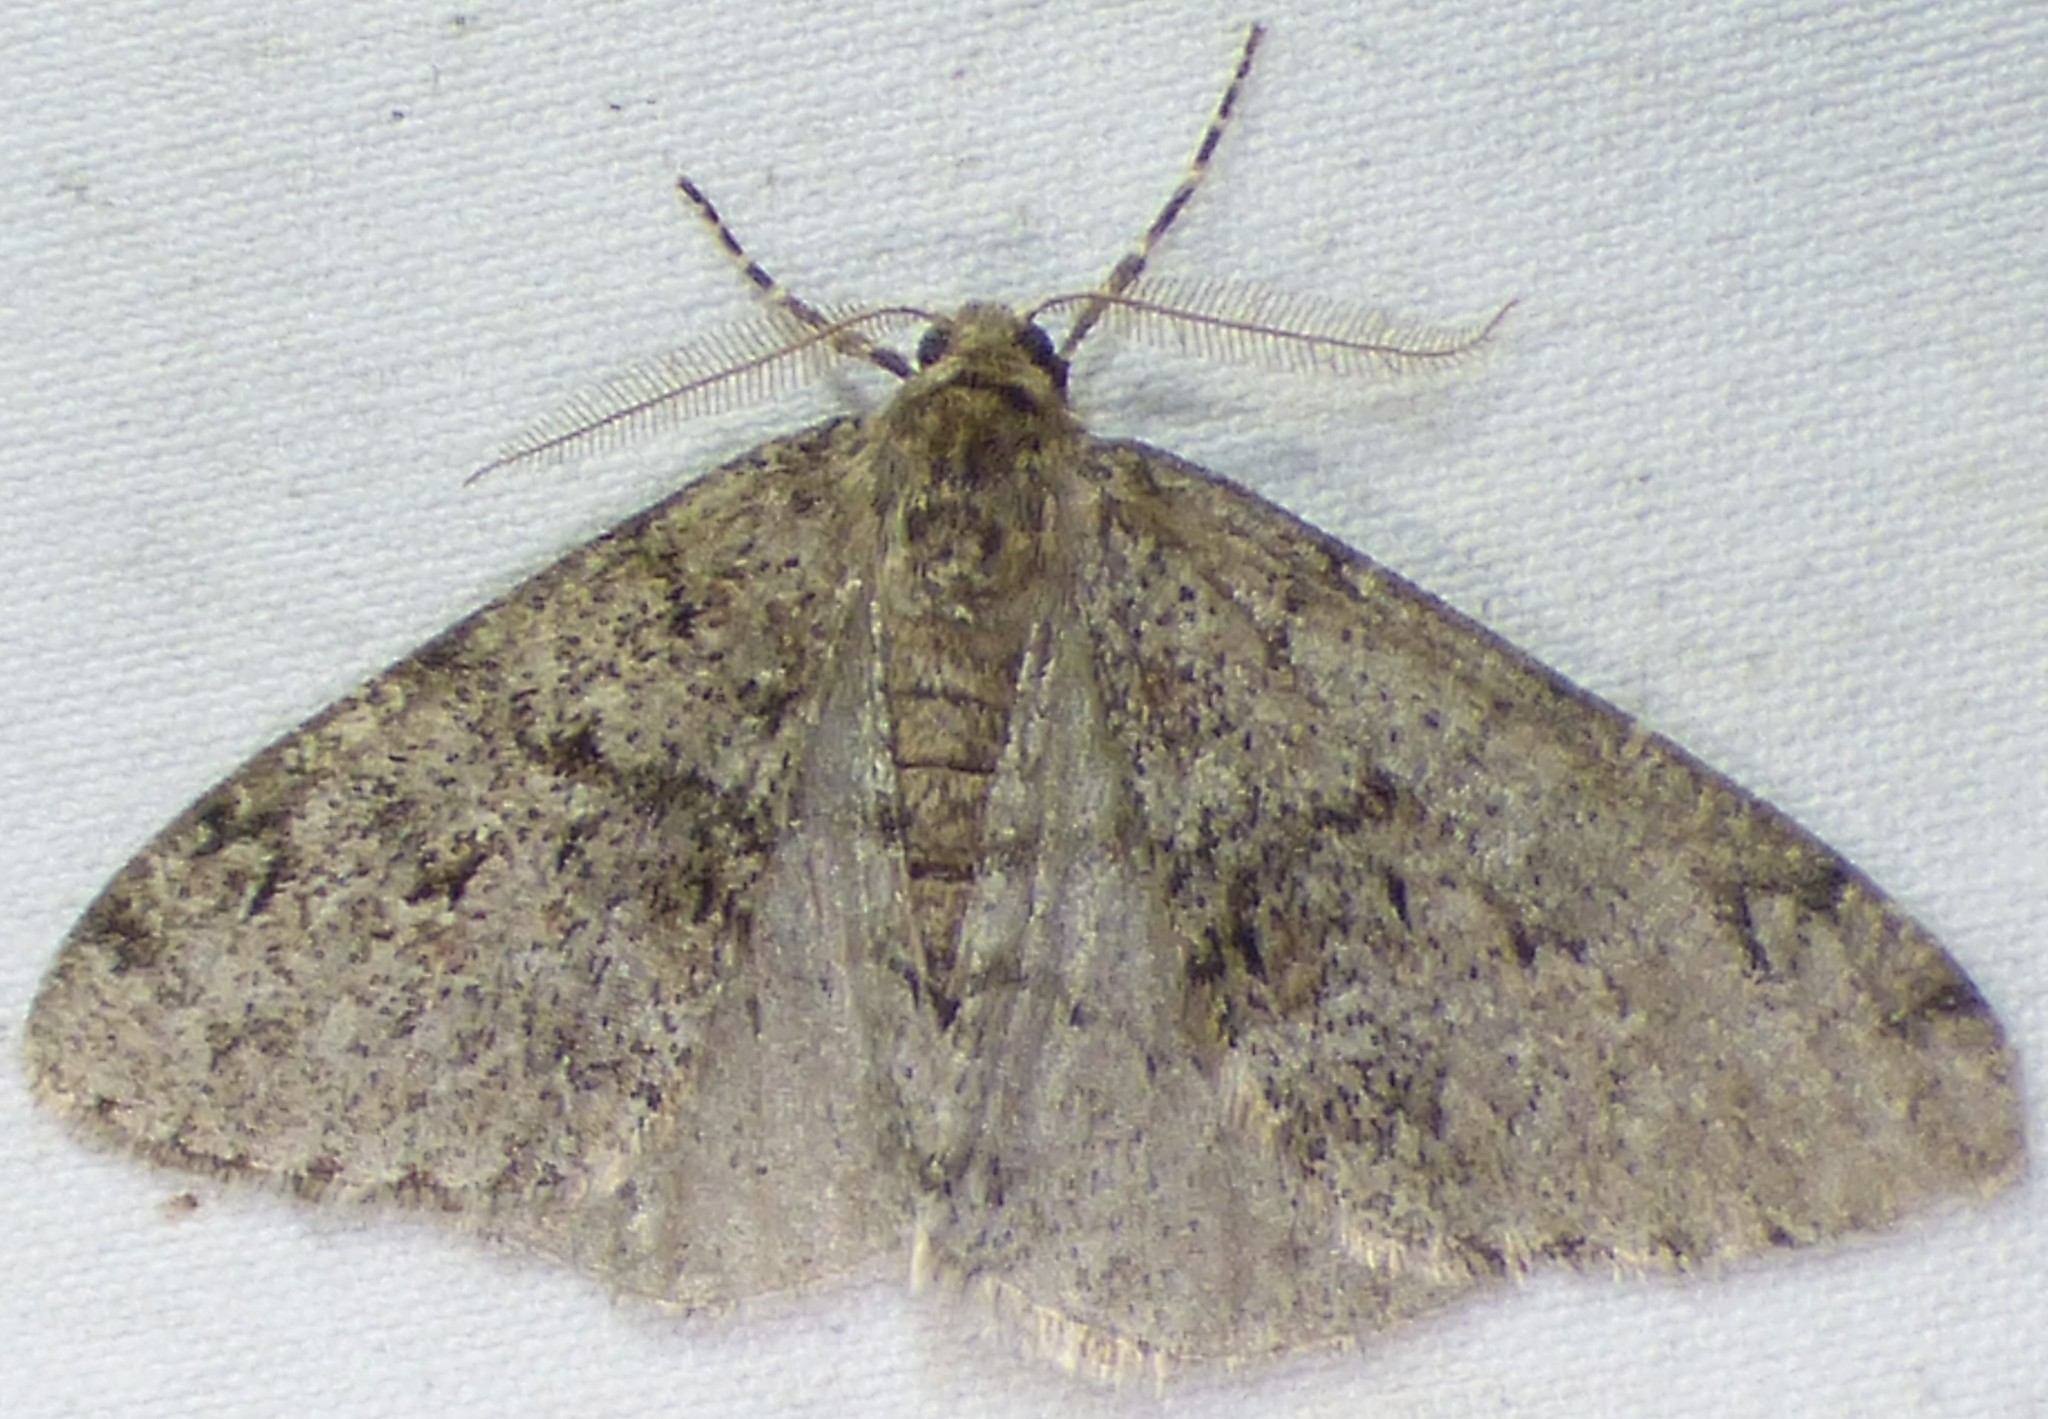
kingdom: Animalia
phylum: Arthropoda
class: Insecta
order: Lepidoptera
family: Geometridae
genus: Phigalia
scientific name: Phigalia strigataria
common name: Small phigalia
